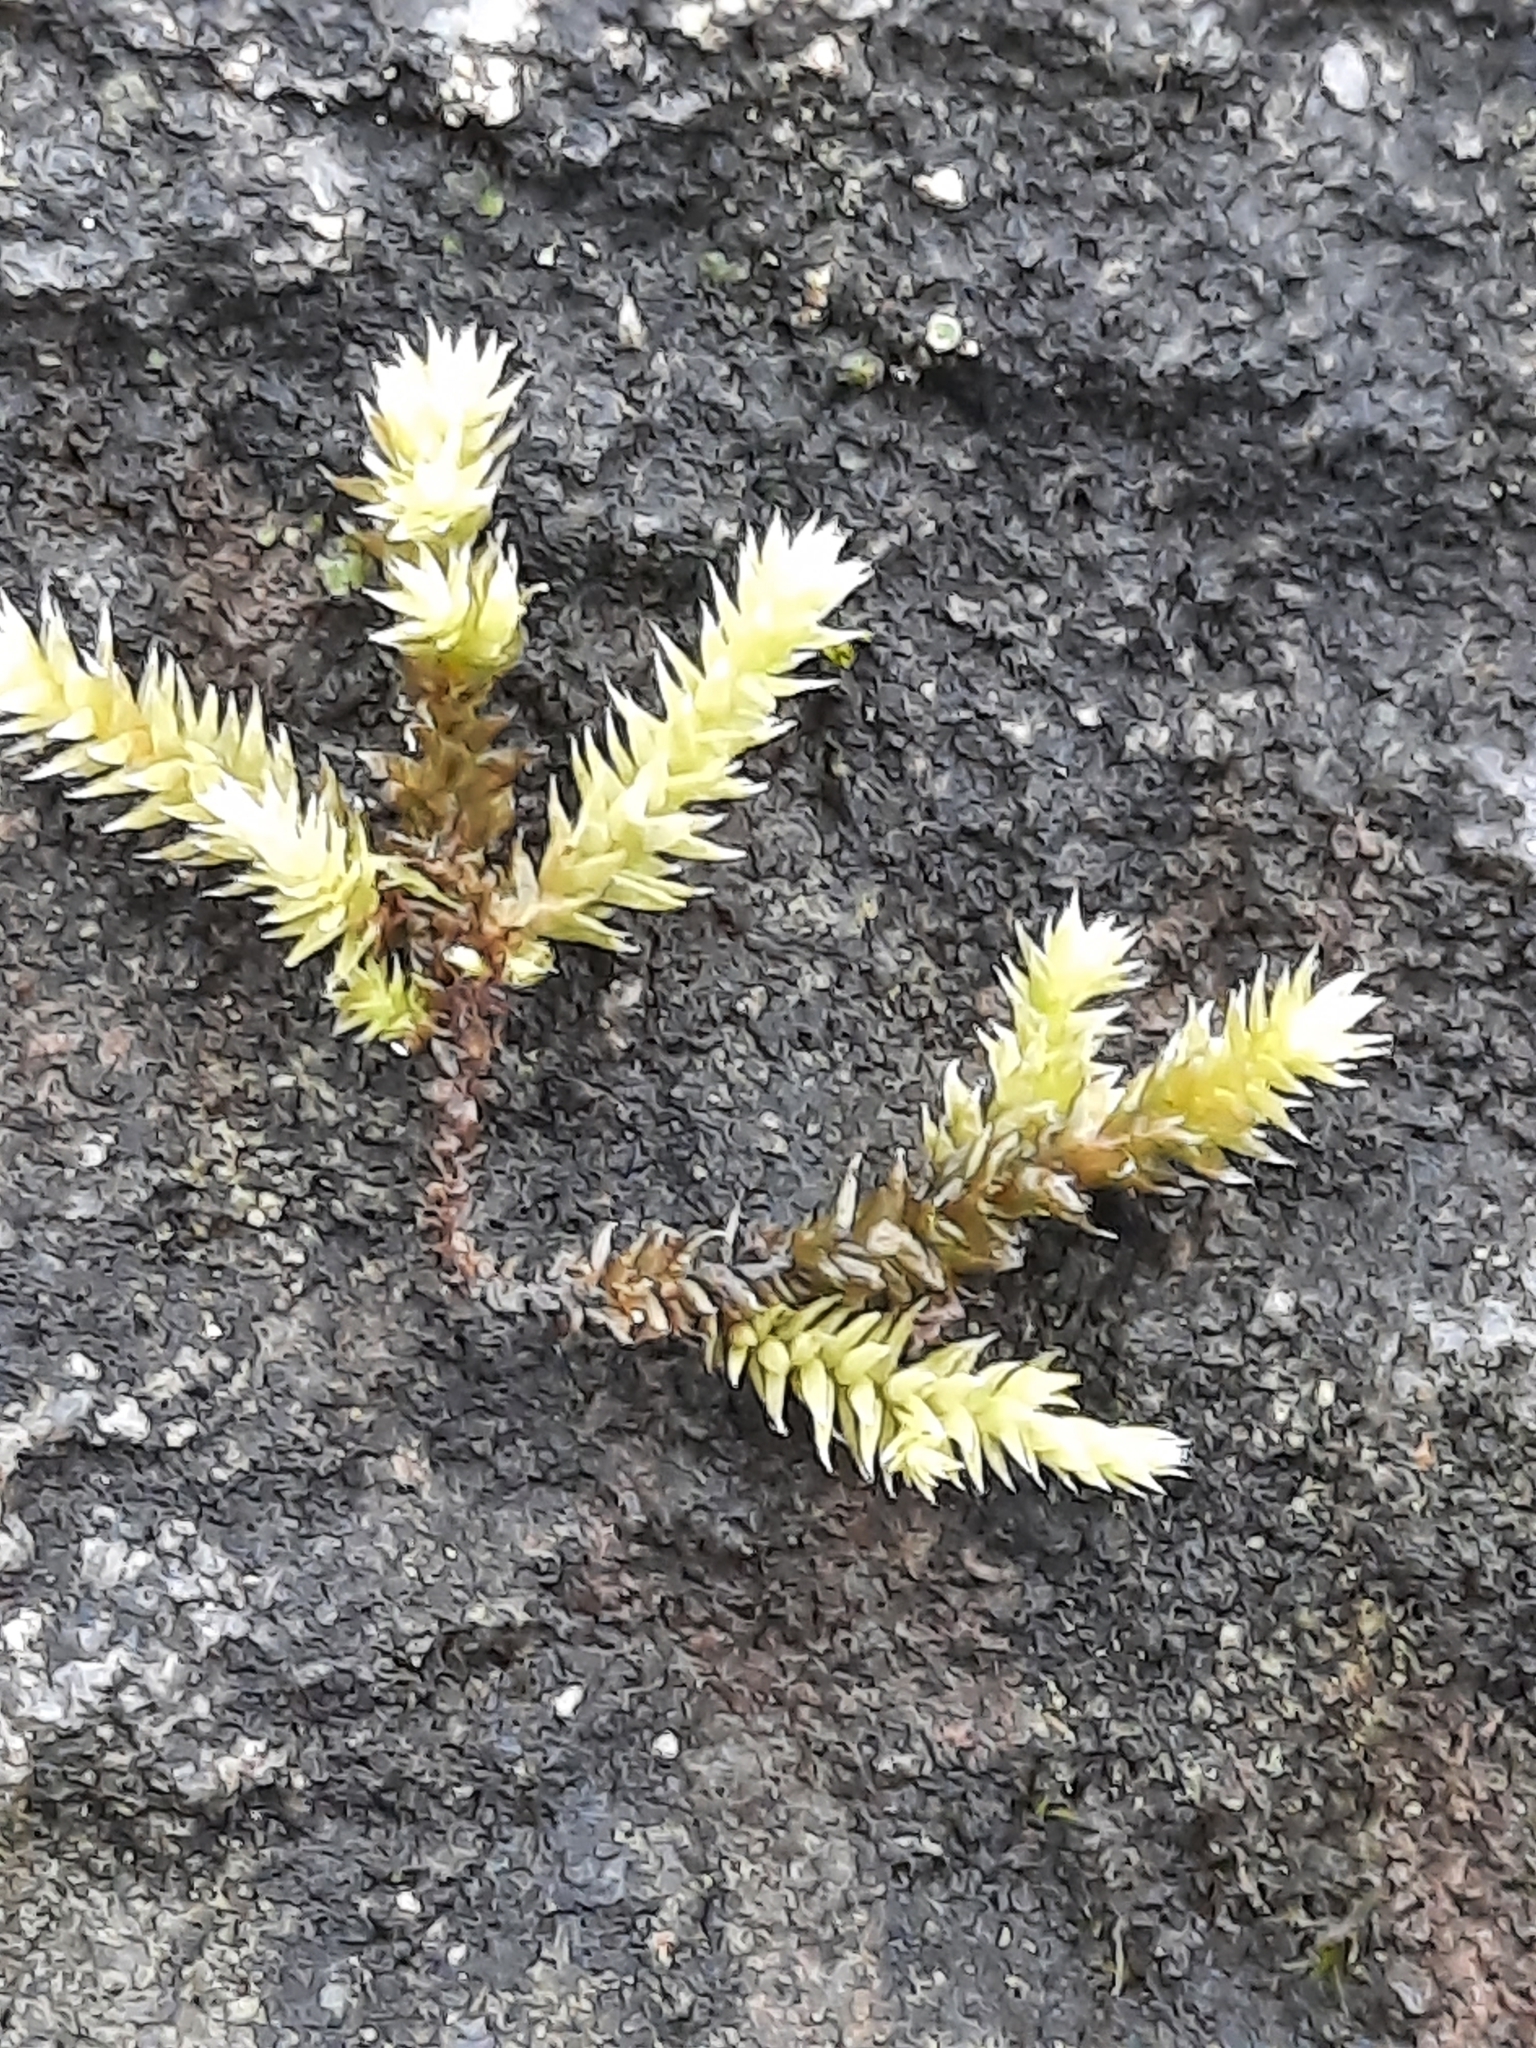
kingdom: Plantae
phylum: Bryophyta
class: Bryopsida
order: Hedwigiales
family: Hedwigiaceae
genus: Hedwigia
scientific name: Hedwigia ciliata
